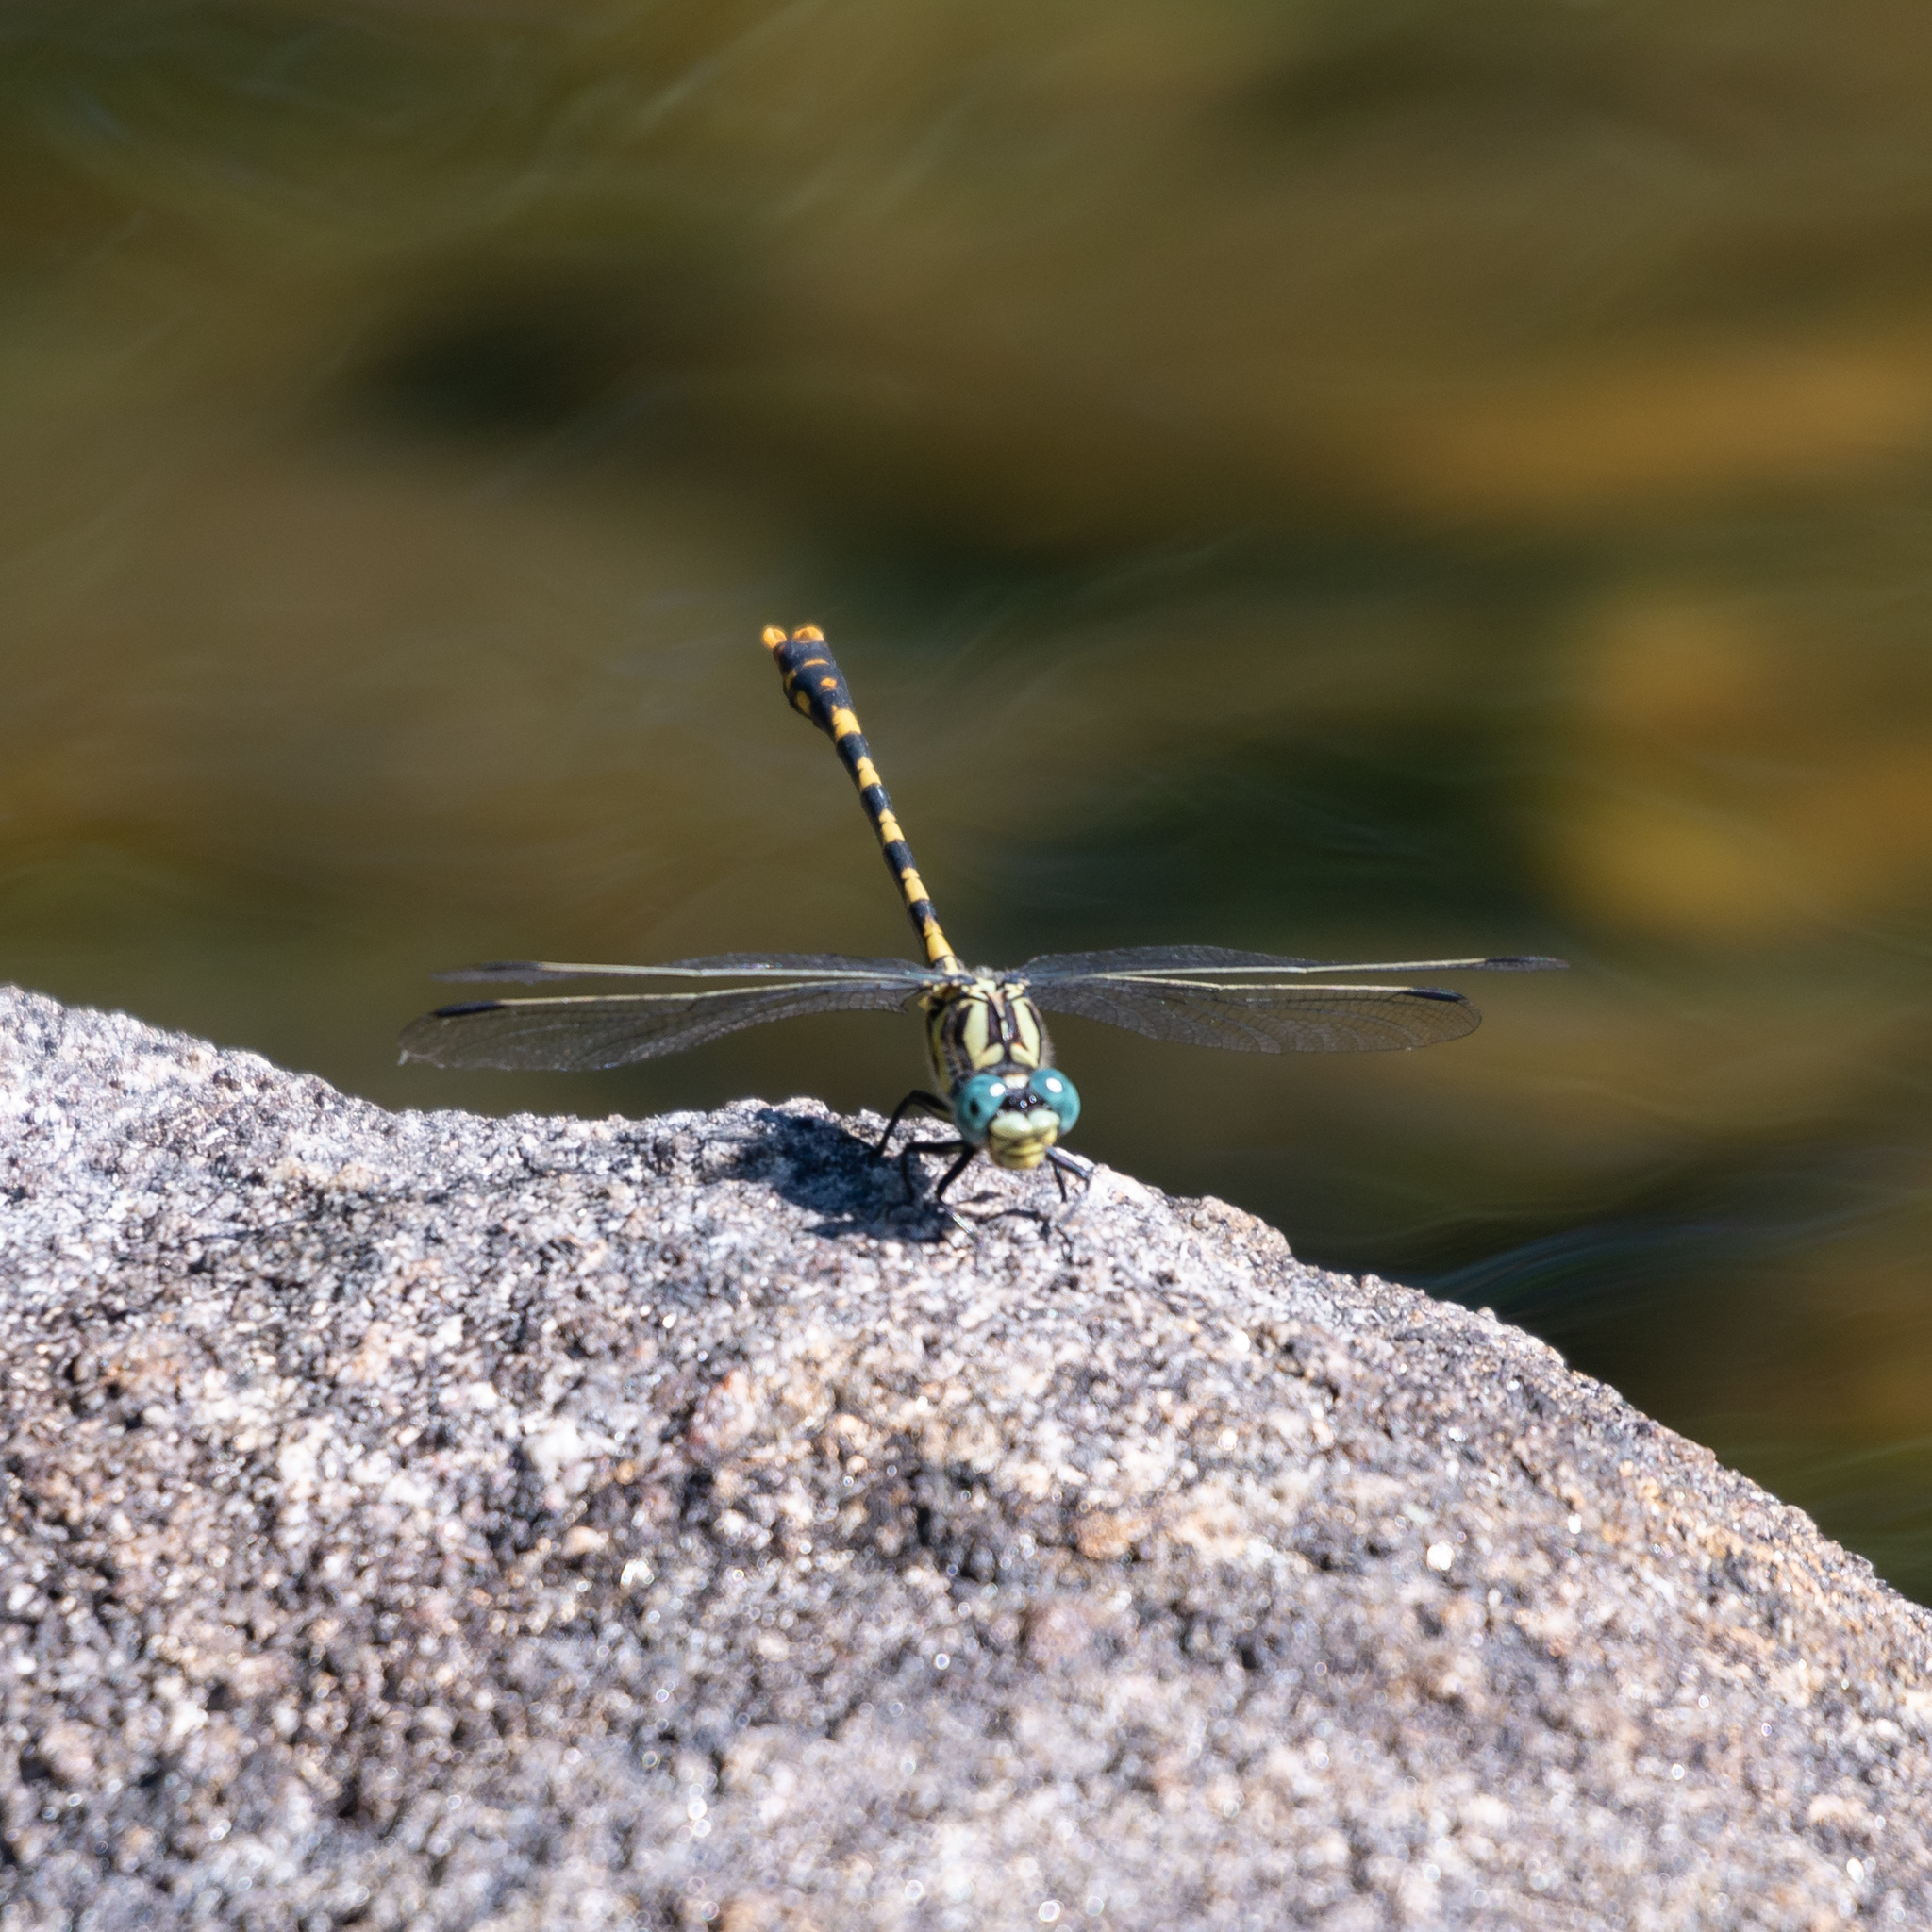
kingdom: Animalia
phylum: Arthropoda
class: Insecta
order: Odonata
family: Gomphidae
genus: Onychogomphus
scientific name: Onychogomphus uncatus
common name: Large pincertail
